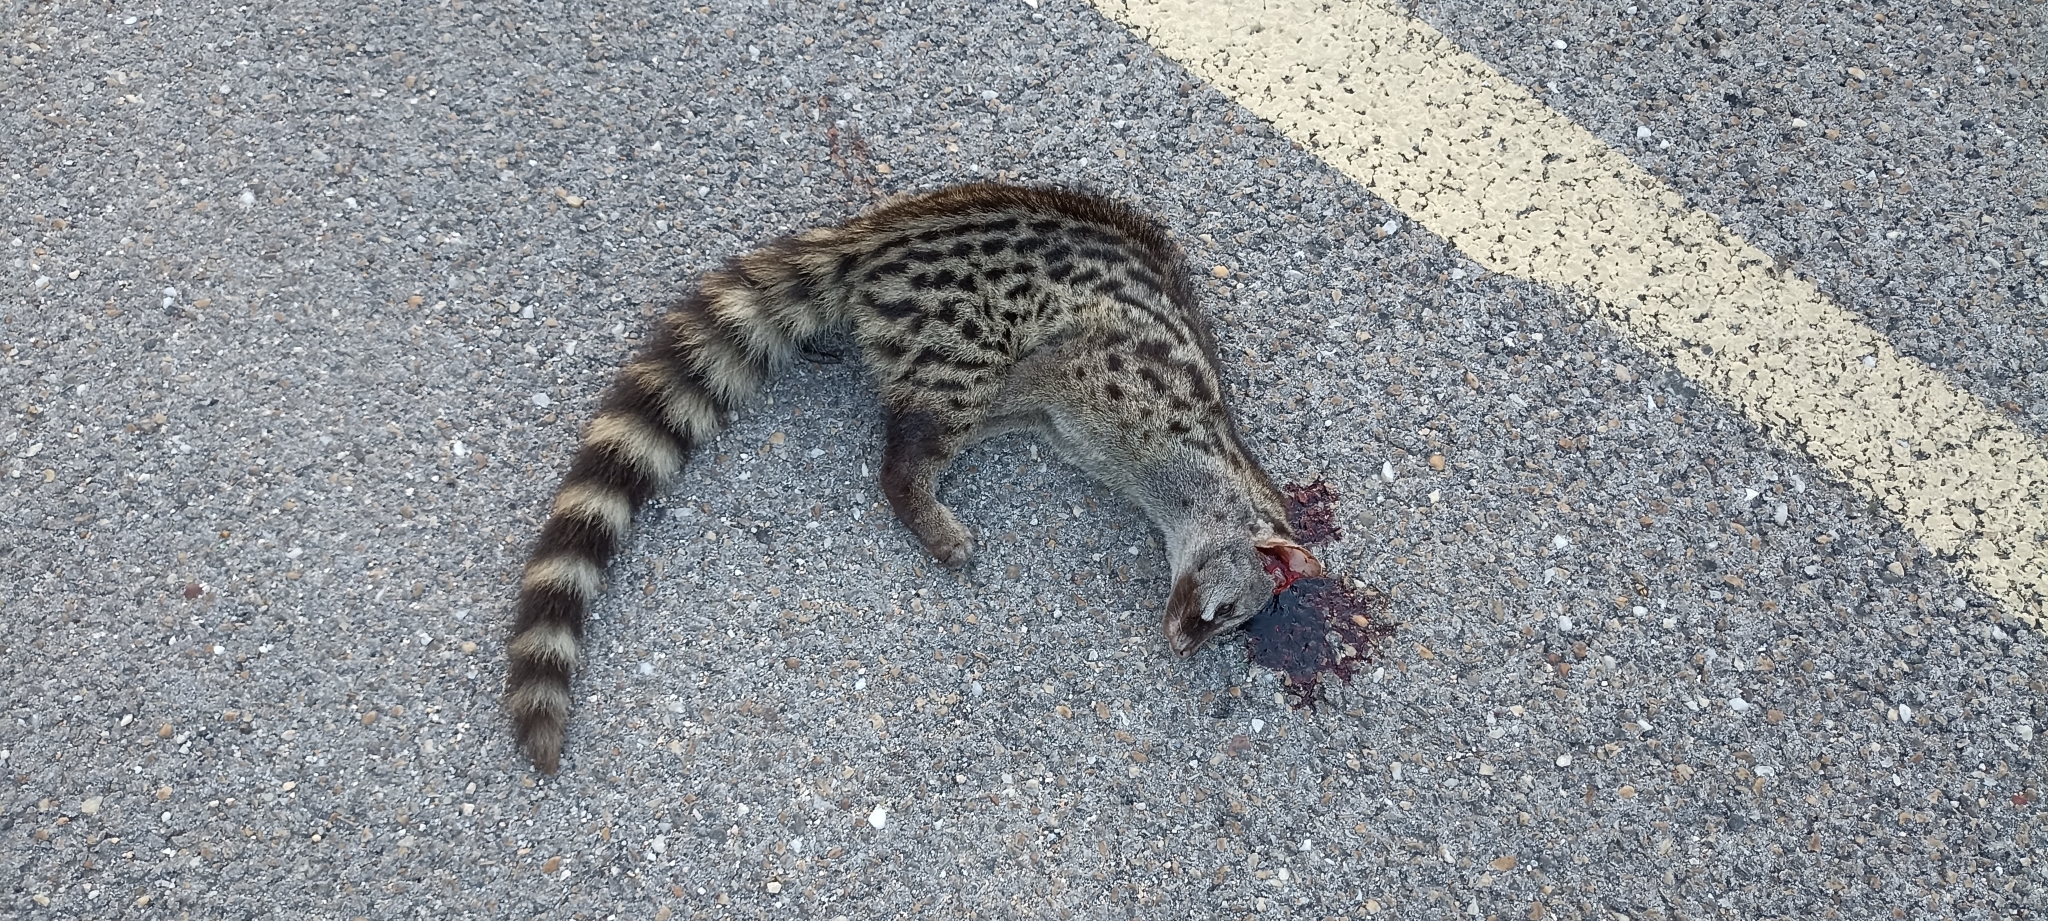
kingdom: Animalia
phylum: Chordata
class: Mammalia
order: Carnivora
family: Viverridae
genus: Genetta
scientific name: Genetta genetta
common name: Common genet
